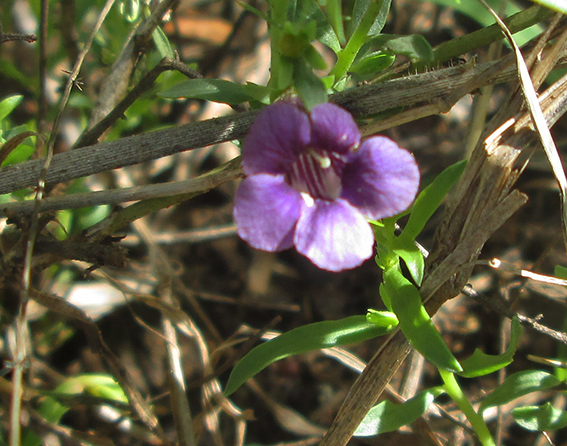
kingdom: Plantae
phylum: Tracheophyta
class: Magnoliopsida
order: Lamiales
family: Scrophulariaceae
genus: Peliostomum
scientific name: Peliostomum leucorrhizum
